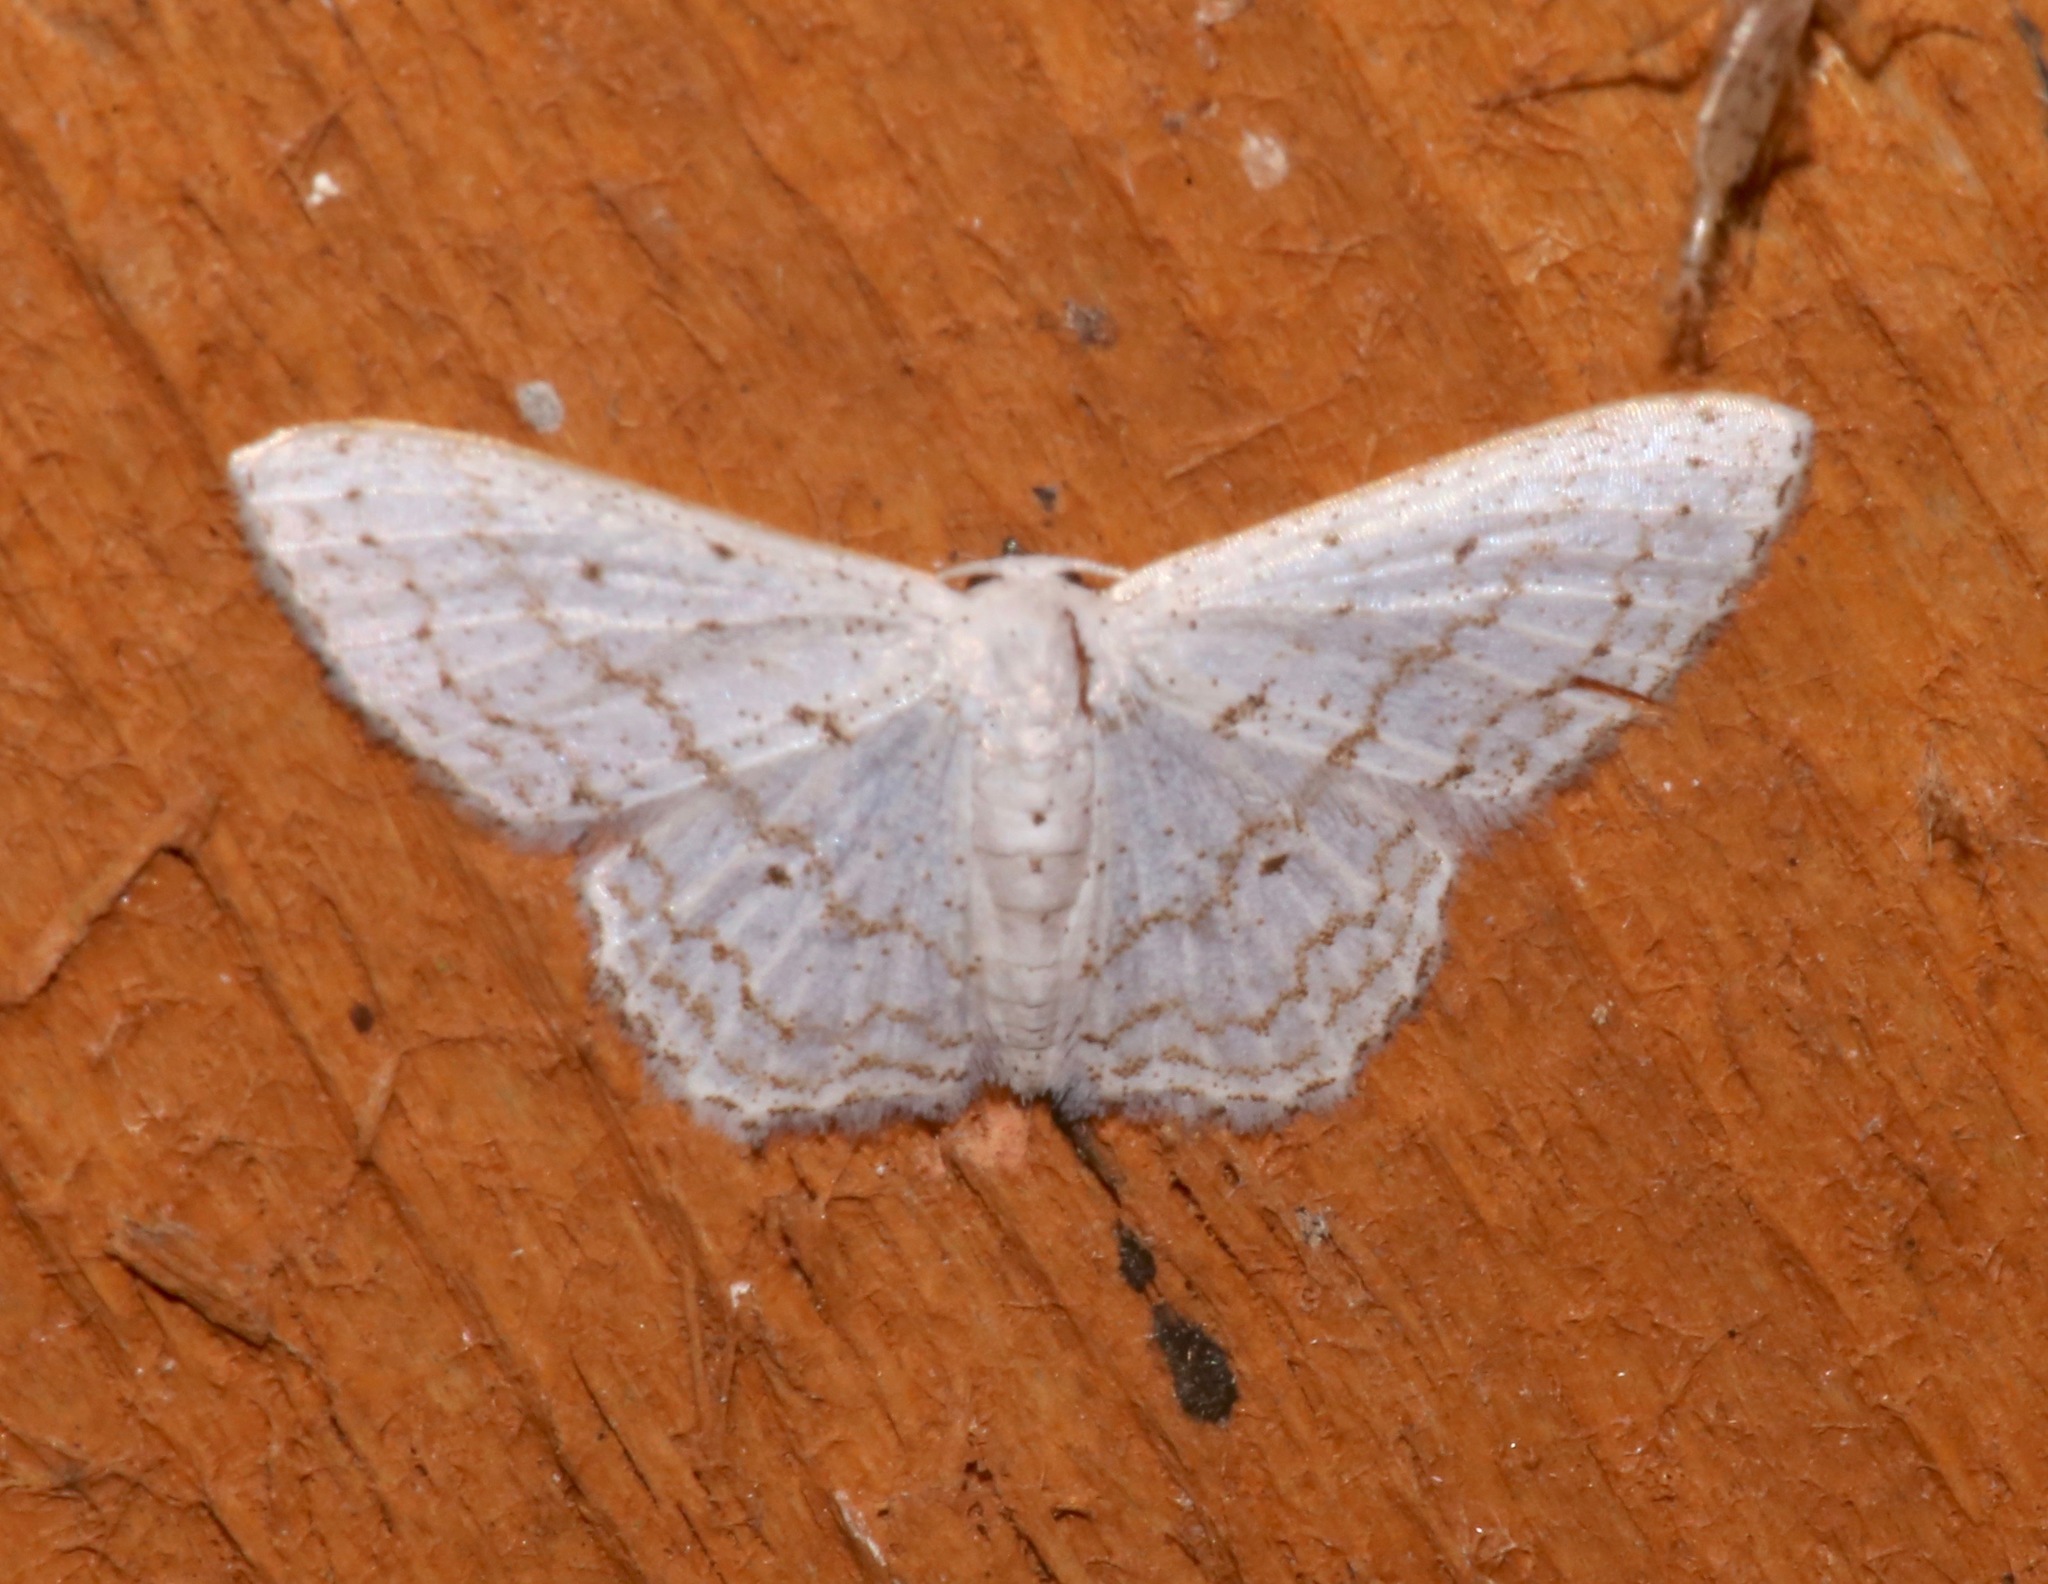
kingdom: Animalia
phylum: Arthropoda
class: Insecta
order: Lepidoptera
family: Geometridae
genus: Idaea
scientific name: Idaea tacturata
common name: Dot-lined wave
